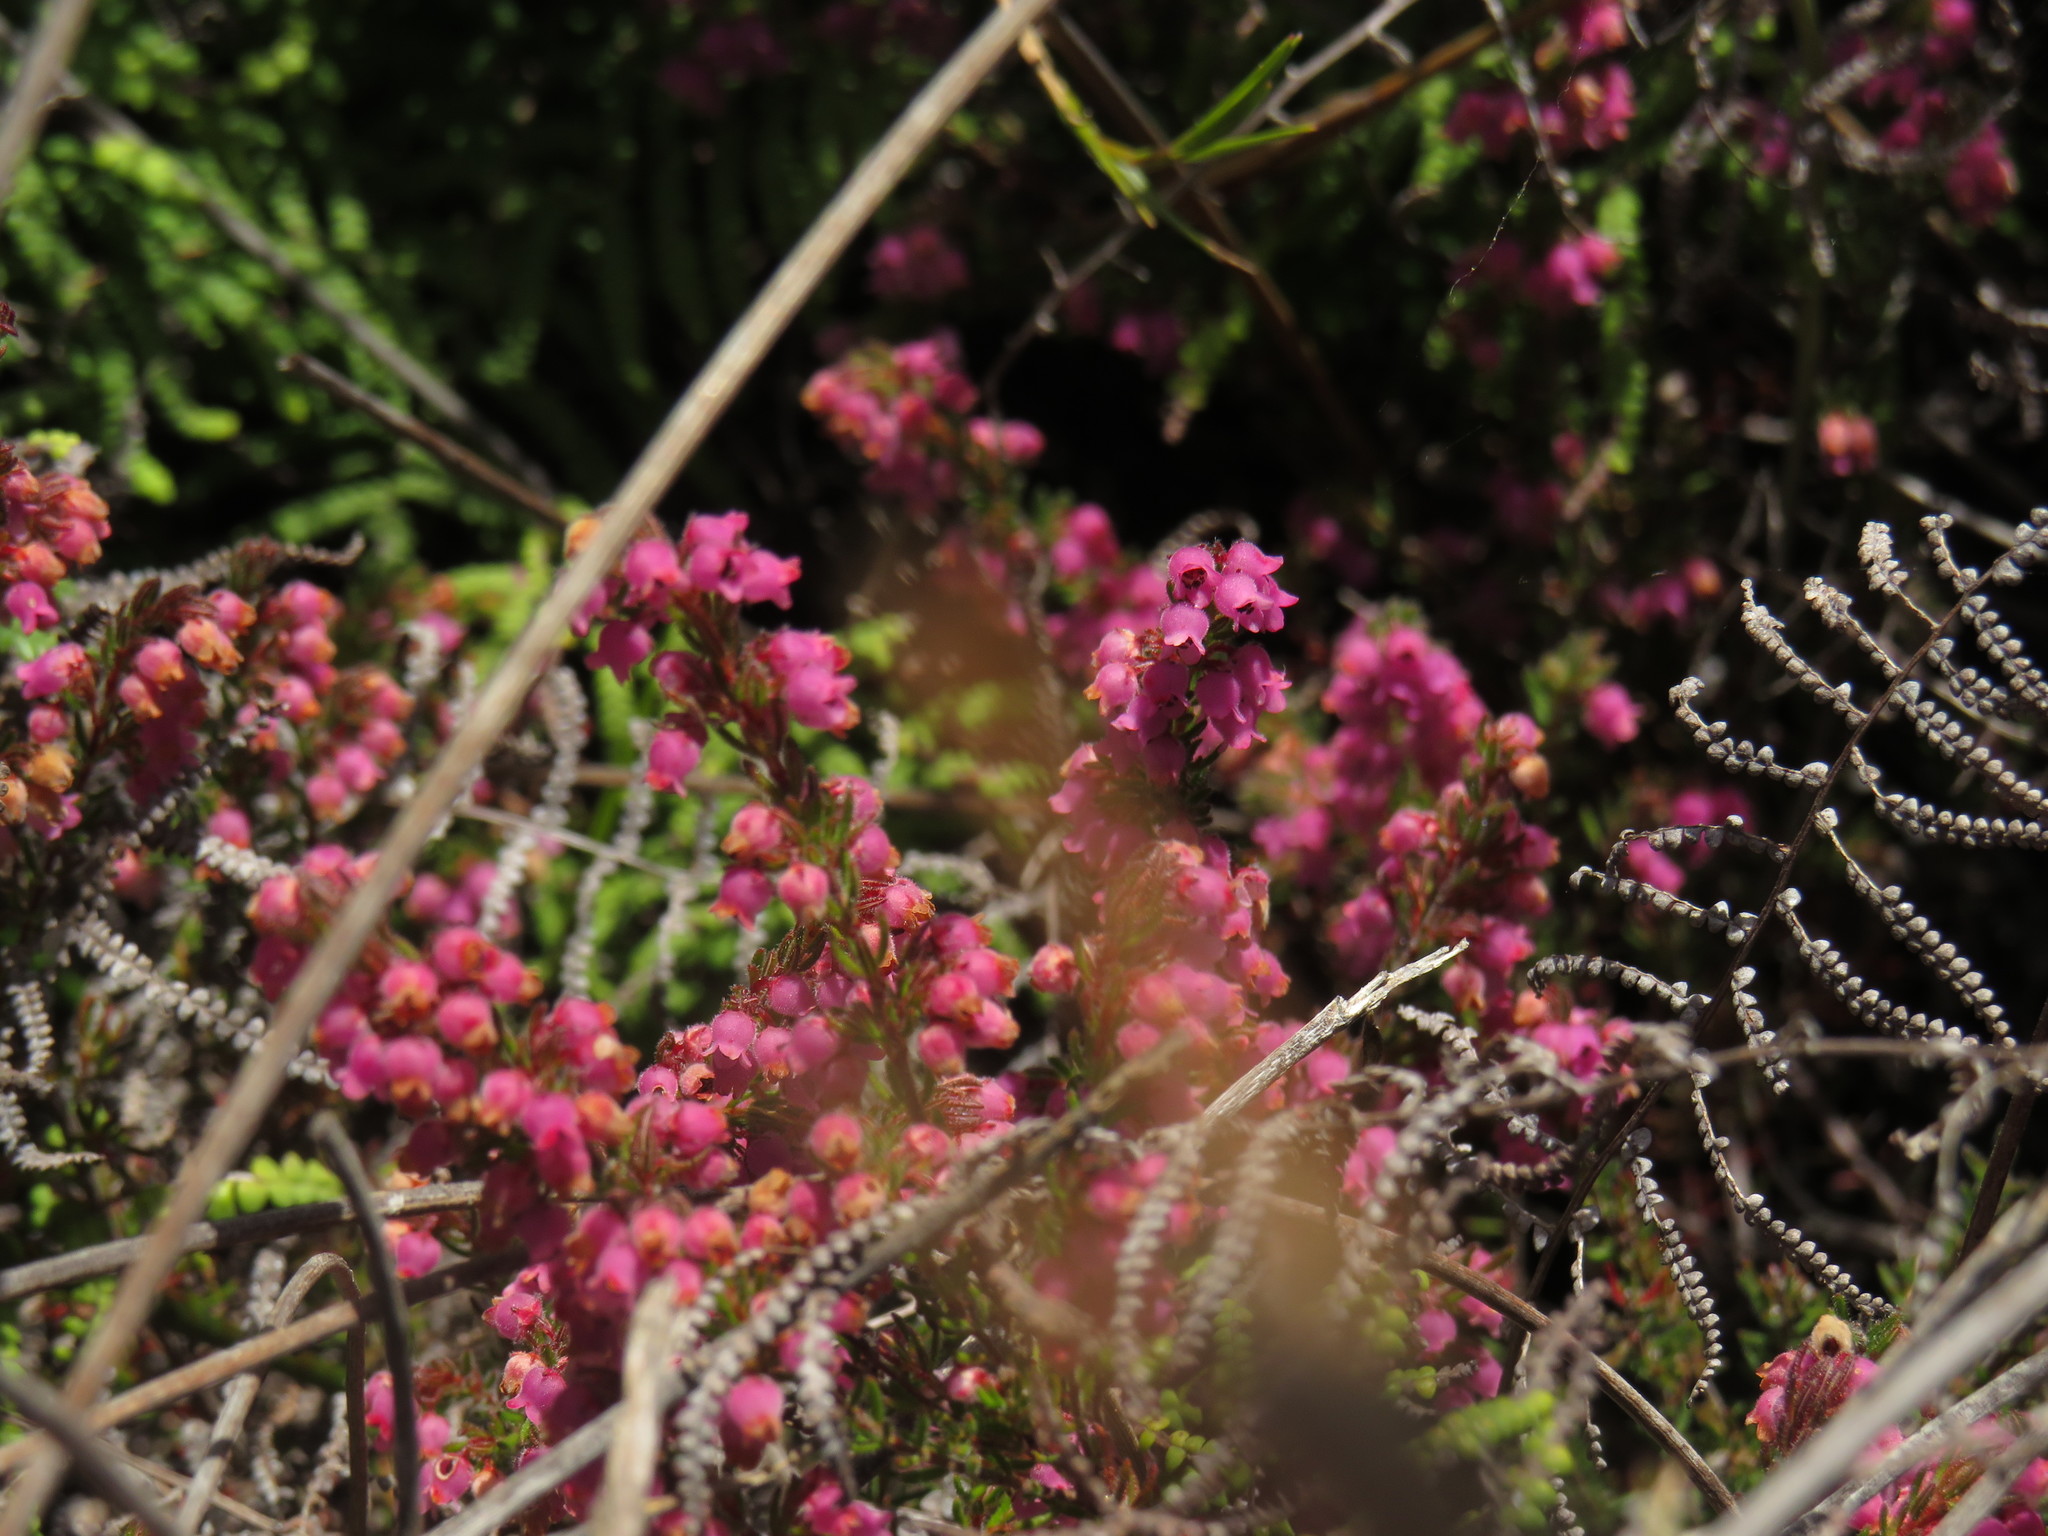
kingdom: Plantae
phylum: Tracheophyta
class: Magnoliopsida
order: Ericales
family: Ericaceae
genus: Erica
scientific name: Erica mollis
